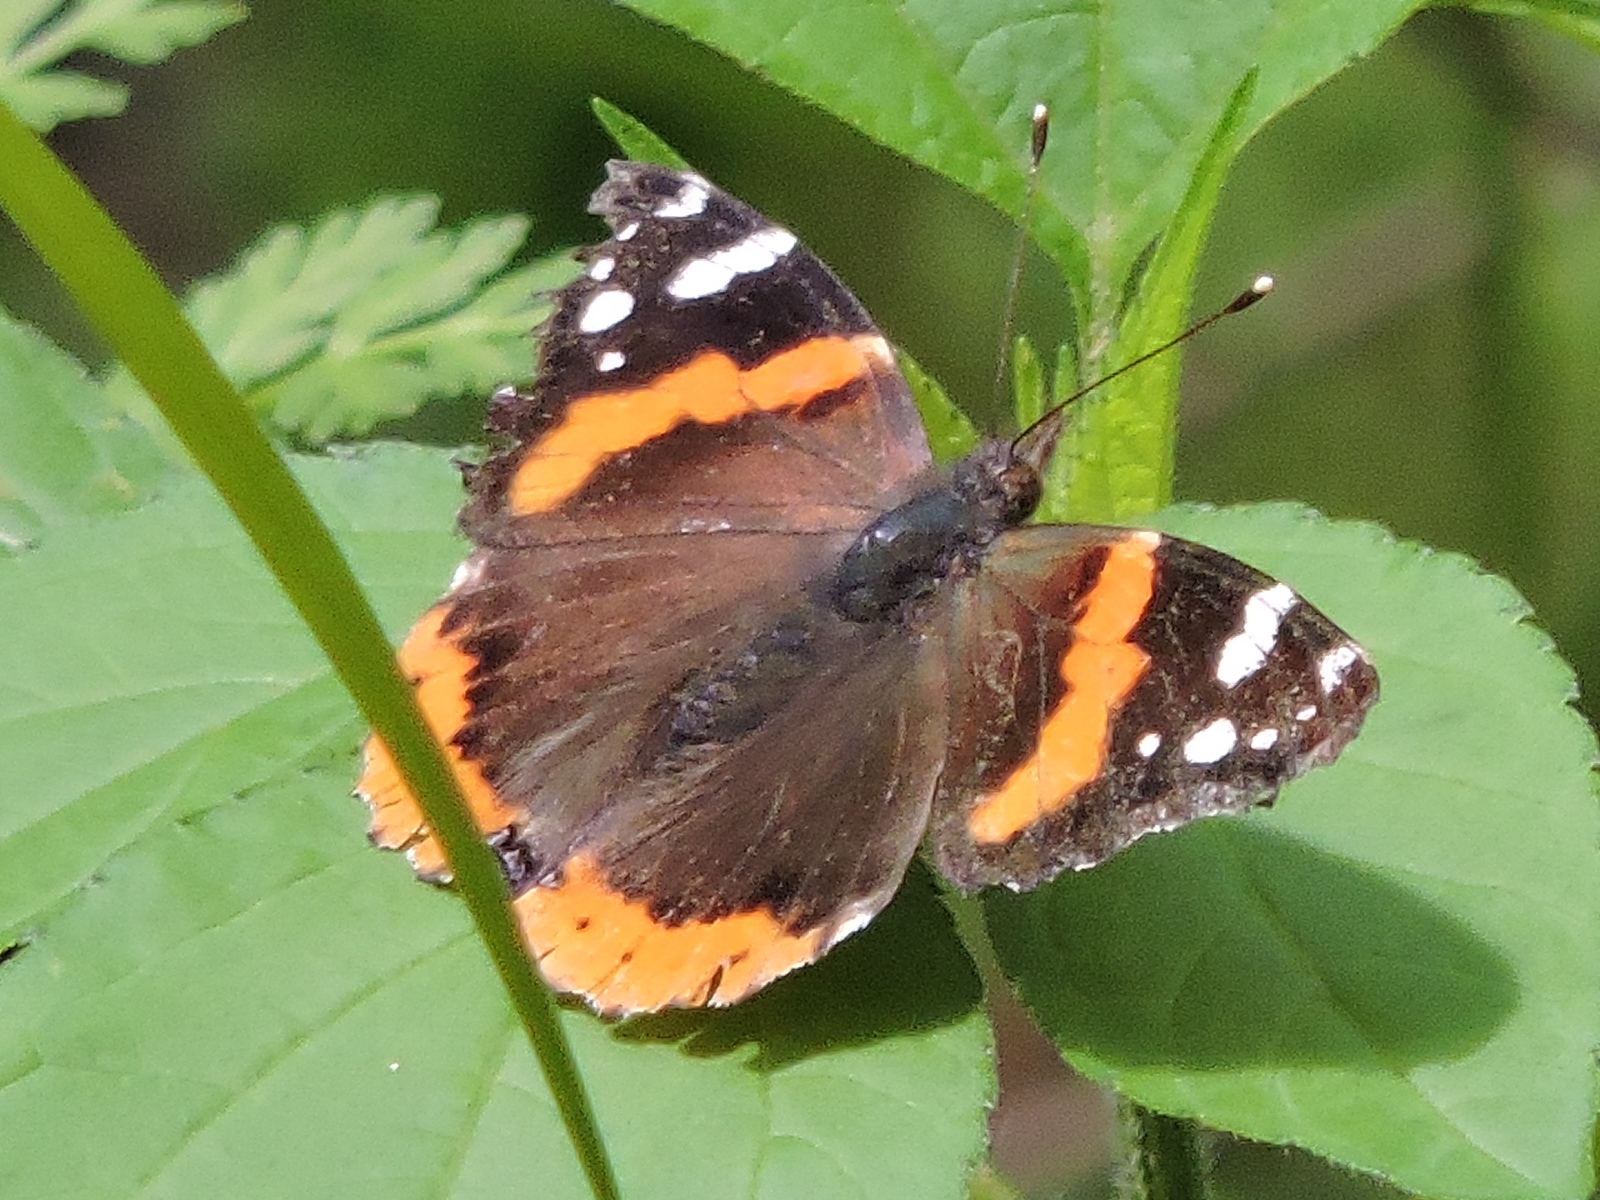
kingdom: Animalia
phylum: Arthropoda
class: Insecta
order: Lepidoptera
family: Nymphalidae
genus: Vanessa
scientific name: Vanessa atalanta
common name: Red admiral
